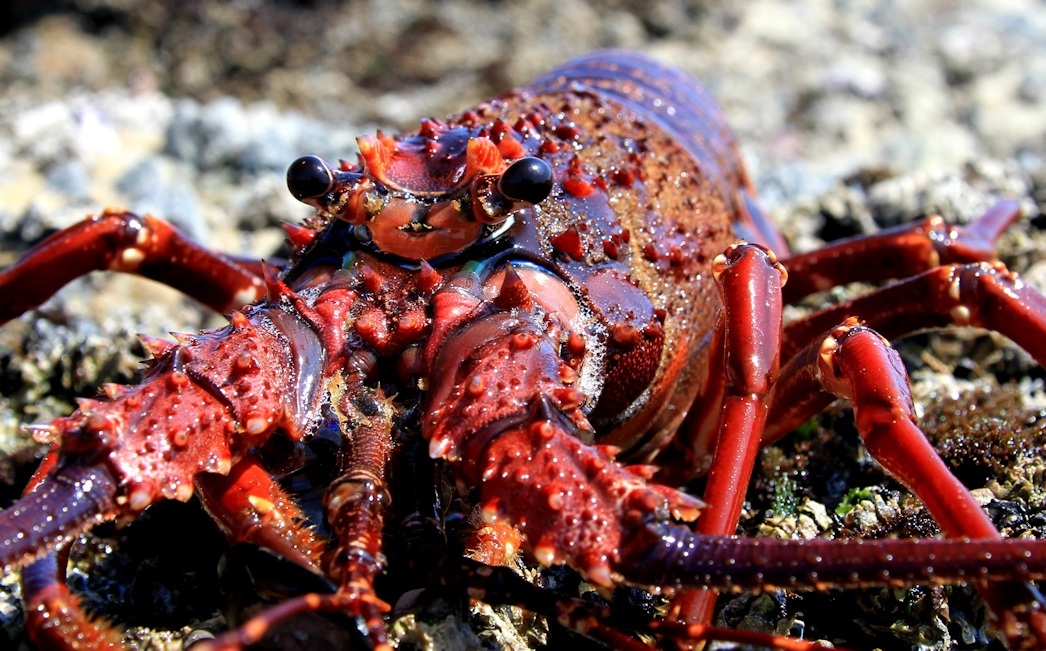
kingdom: Animalia
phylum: Arthropoda
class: Malacostraca
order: Decapoda
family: Palinuridae
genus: Panulirus
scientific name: Panulirus homarus
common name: Scalloped spiny lobster
